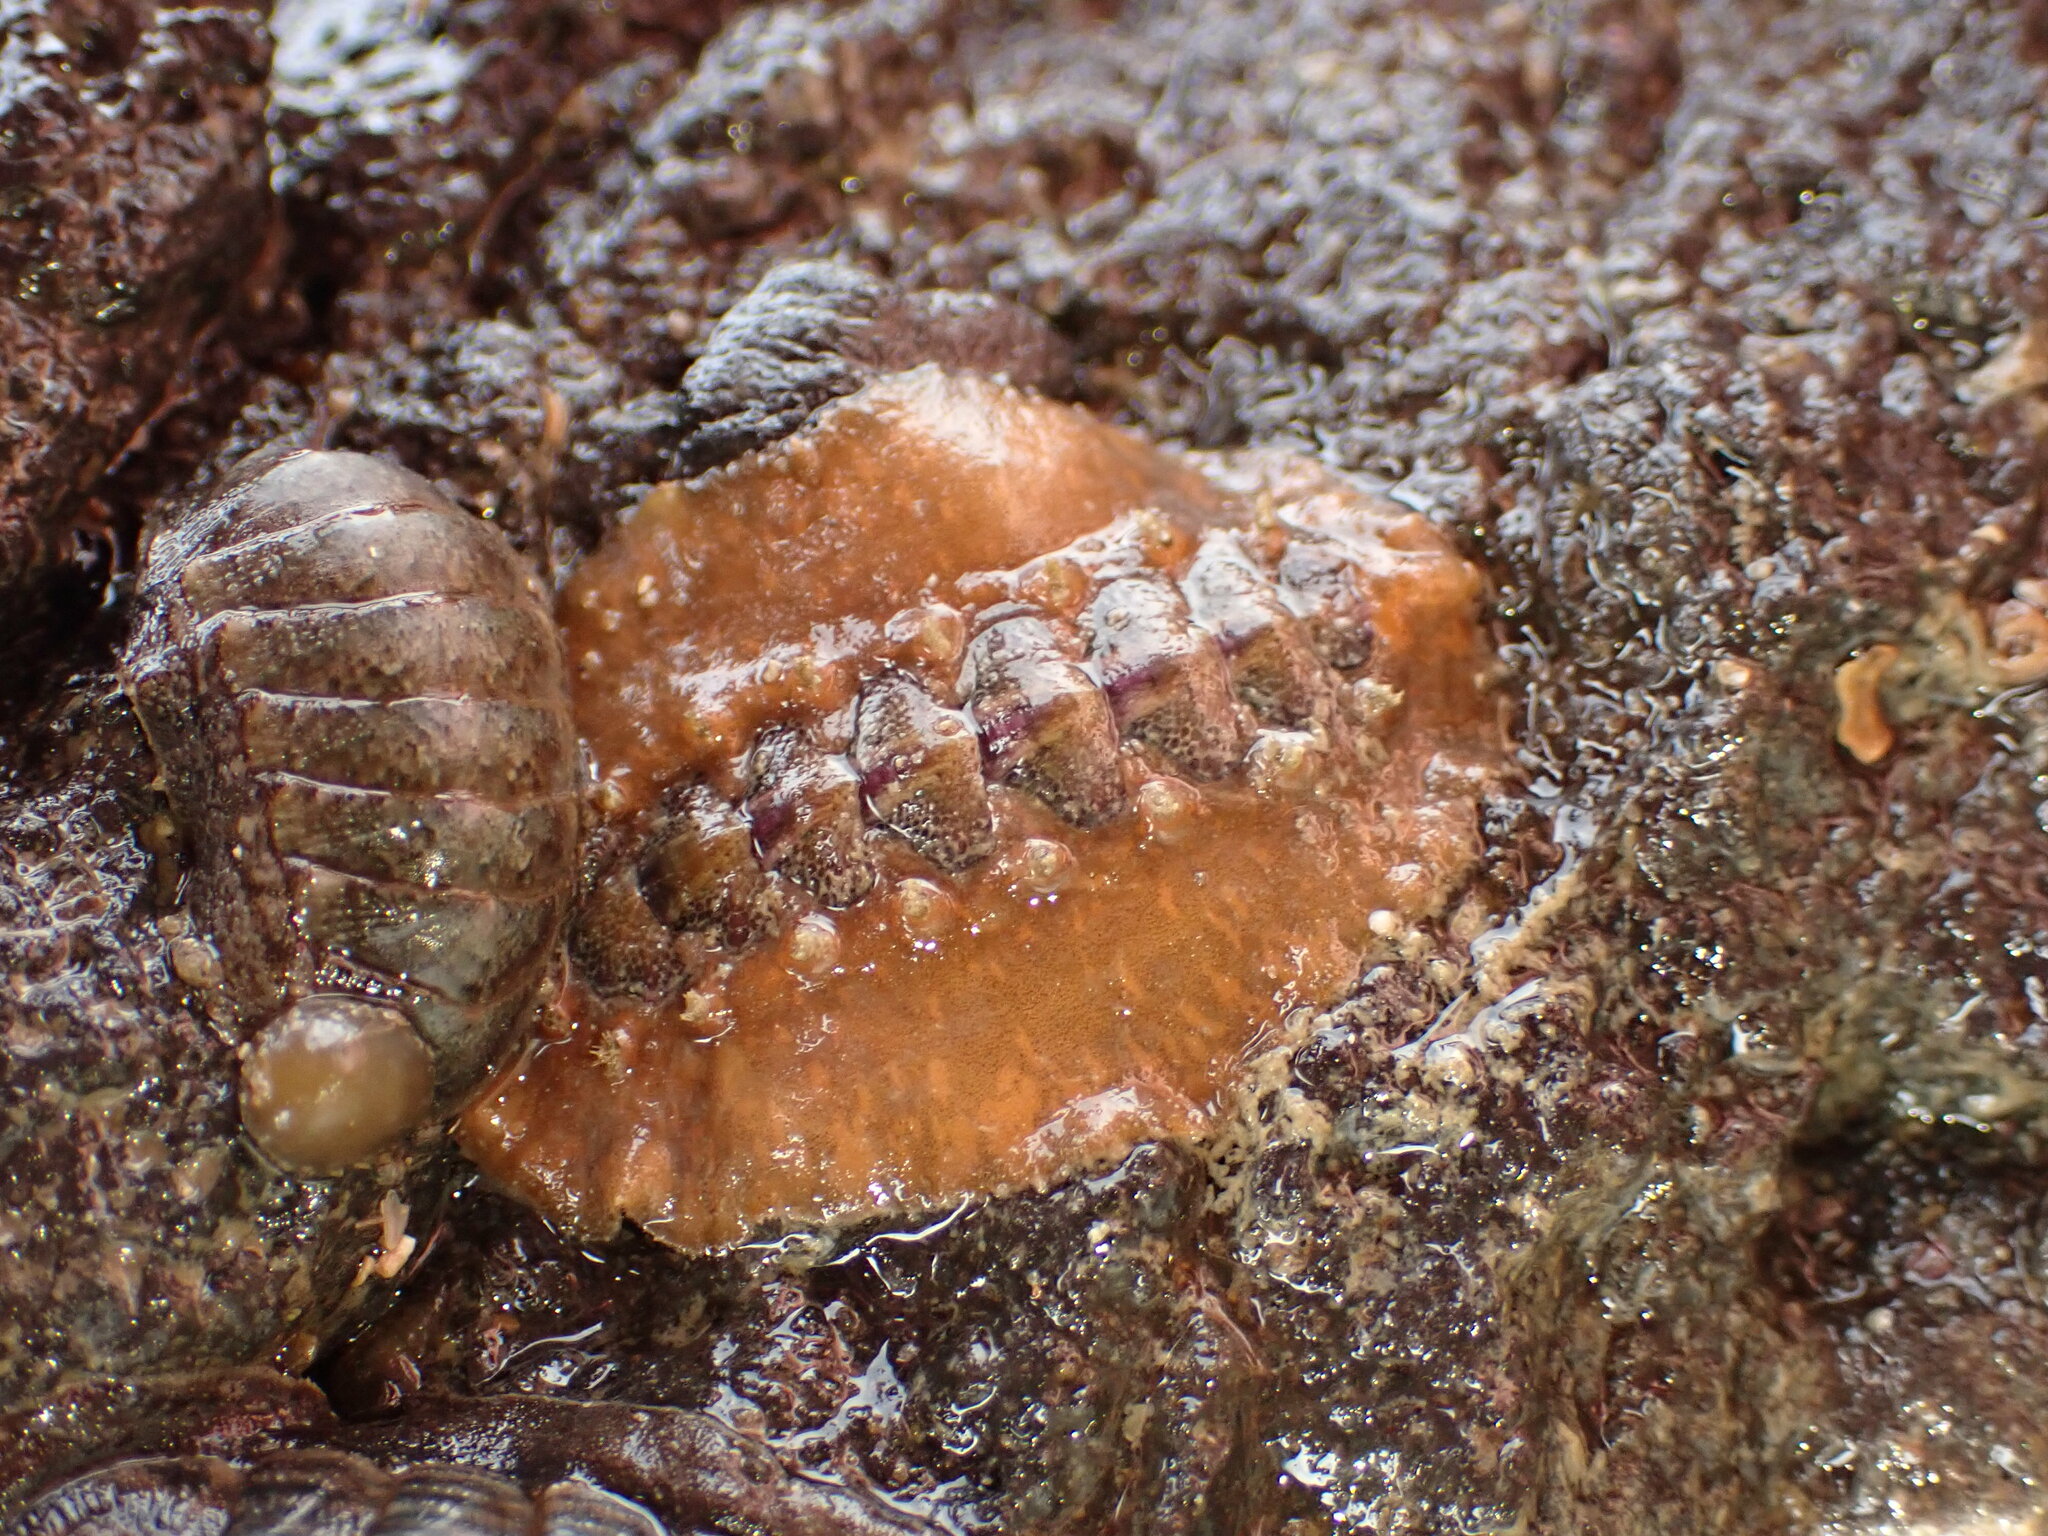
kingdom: Animalia
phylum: Mollusca
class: Polyplacophora
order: Chitonida
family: Acanthochitonidae
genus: Notoplax
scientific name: Notoplax violacea
